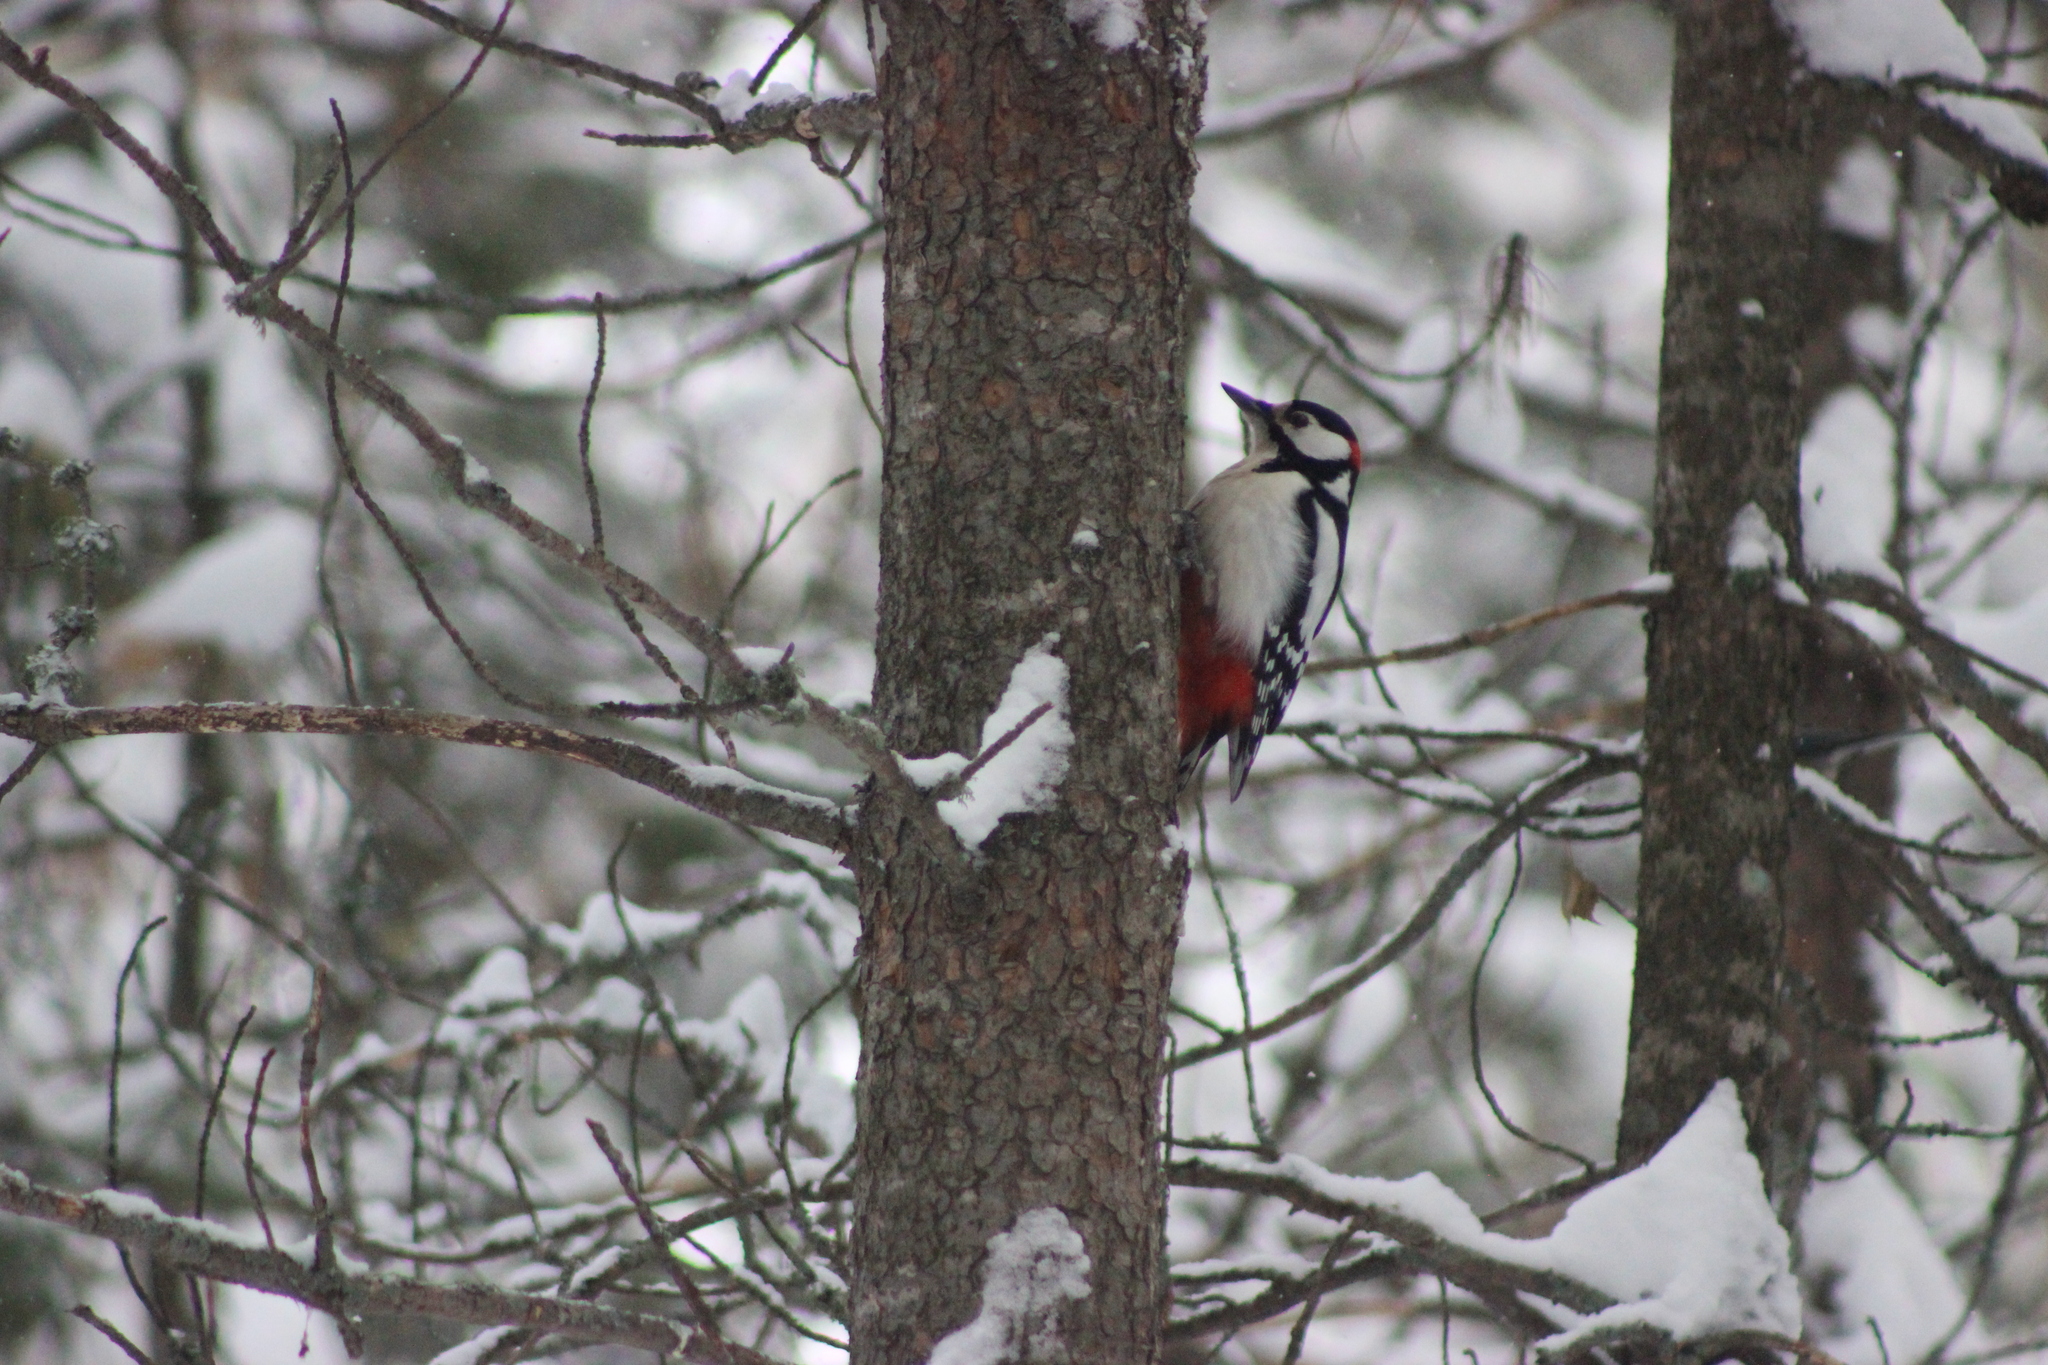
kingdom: Animalia
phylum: Chordata
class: Aves
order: Piciformes
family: Picidae
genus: Dendrocopos
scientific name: Dendrocopos major
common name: Great spotted woodpecker
